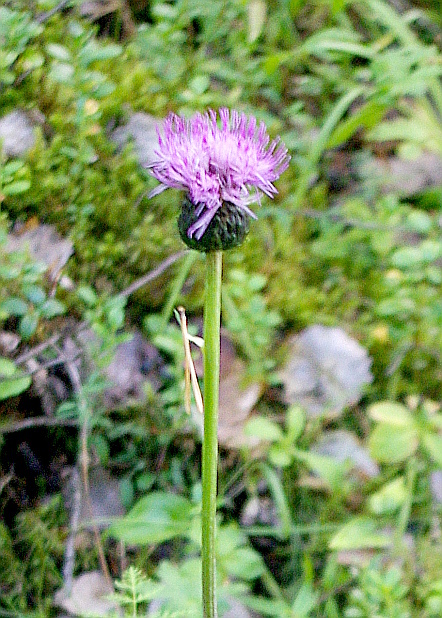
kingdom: Plantae
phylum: Tracheophyta
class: Magnoliopsida
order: Asterales
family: Asteraceae
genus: Cirsium
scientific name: Cirsium heterophyllum
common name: Melancholy thistle
